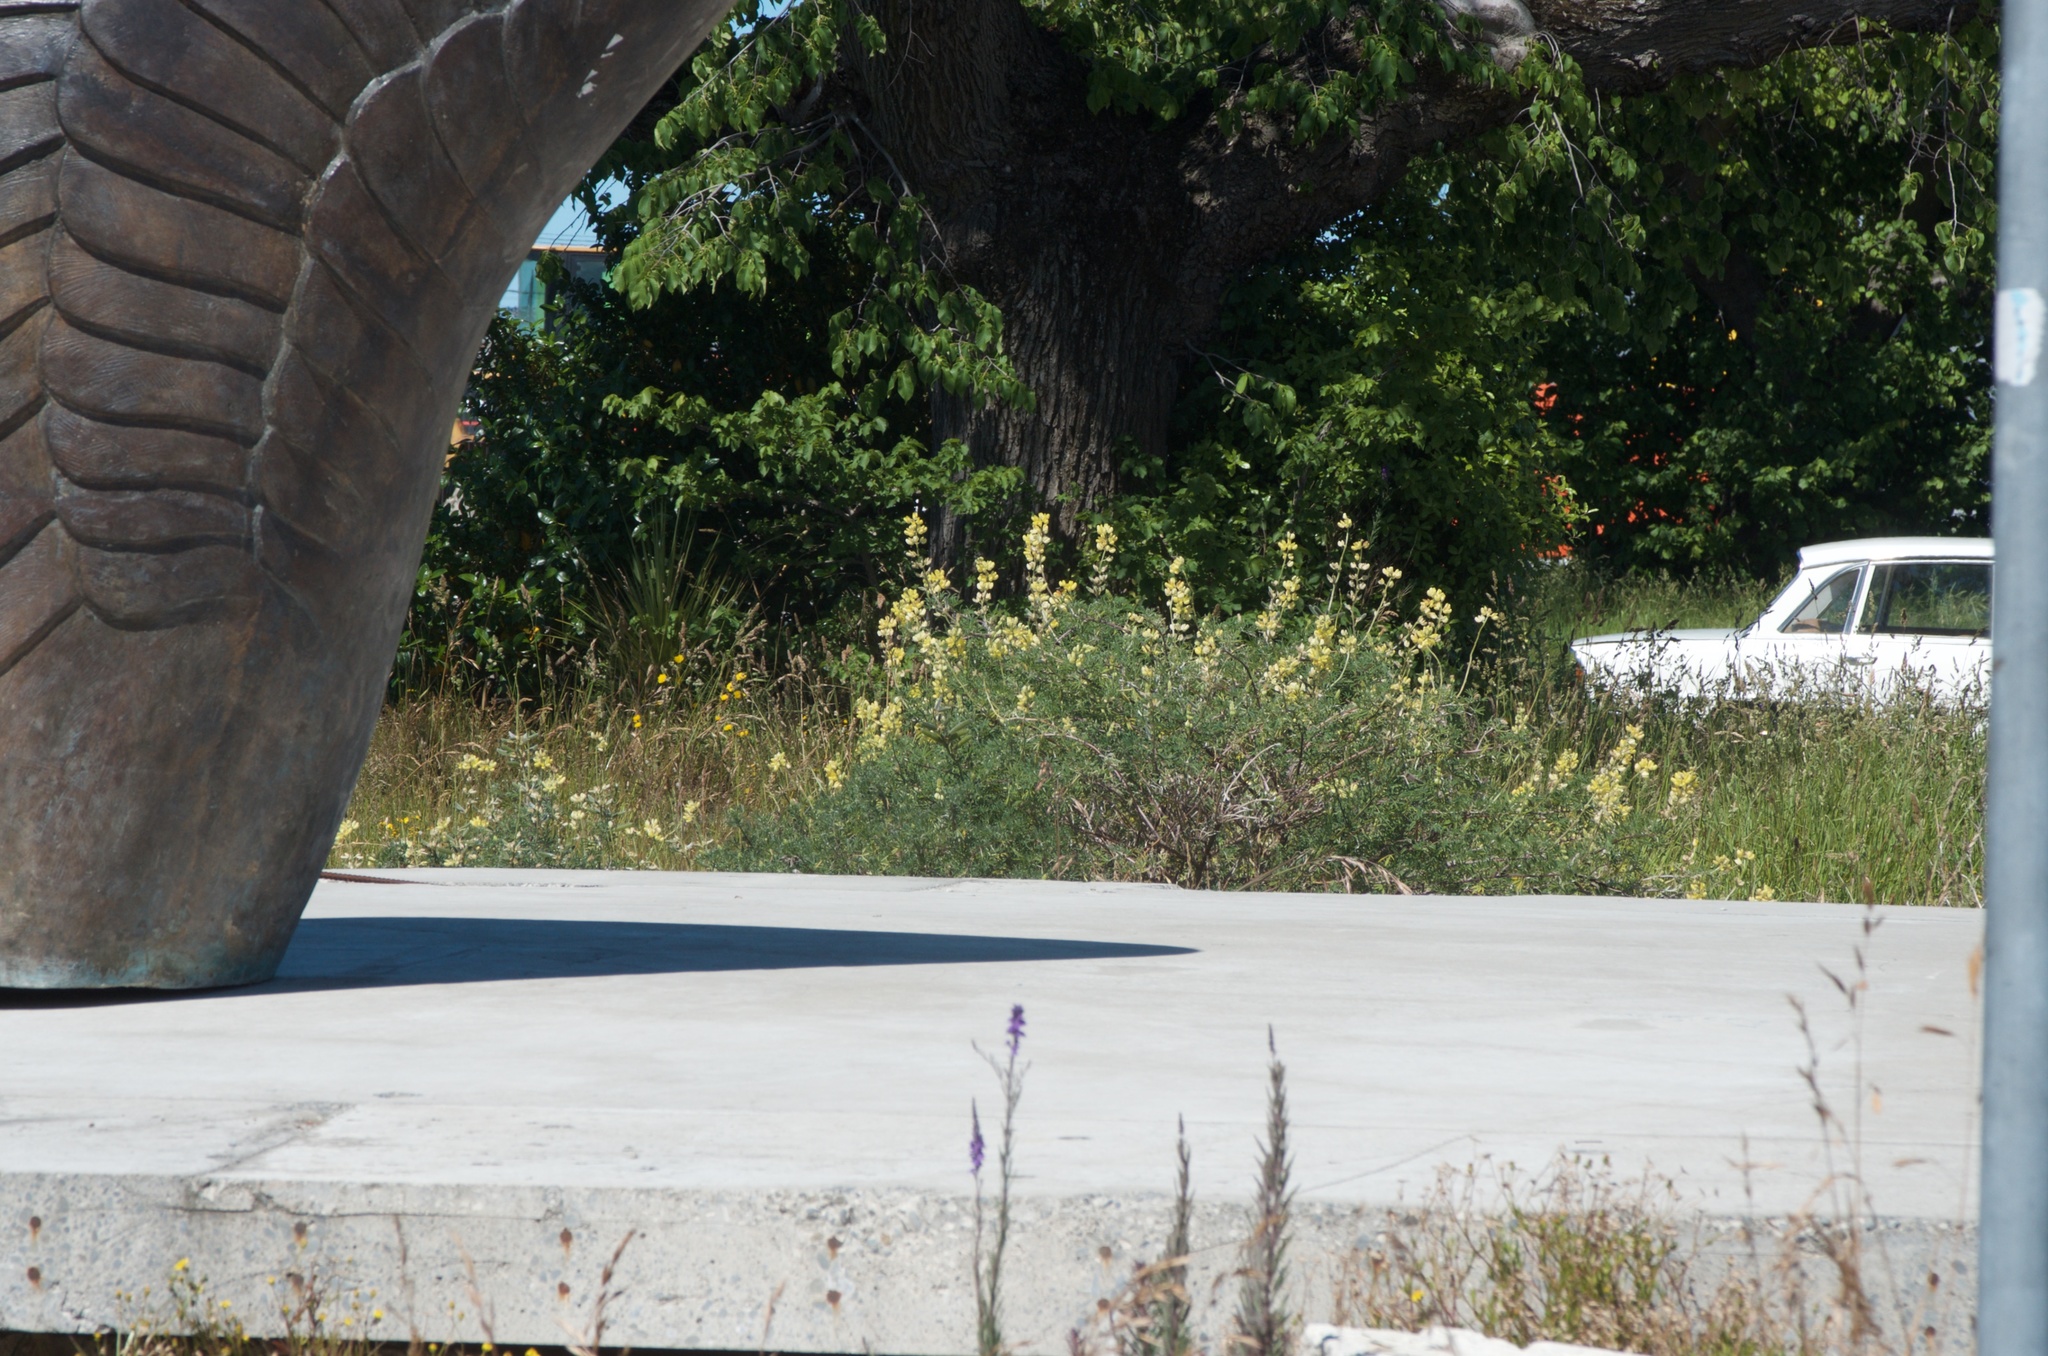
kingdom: Plantae
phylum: Tracheophyta
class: Magnoliopsida
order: Fabales
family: Fabaceae
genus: Lupinus
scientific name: Lupinus arboreus
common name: Yellow bush lupine
